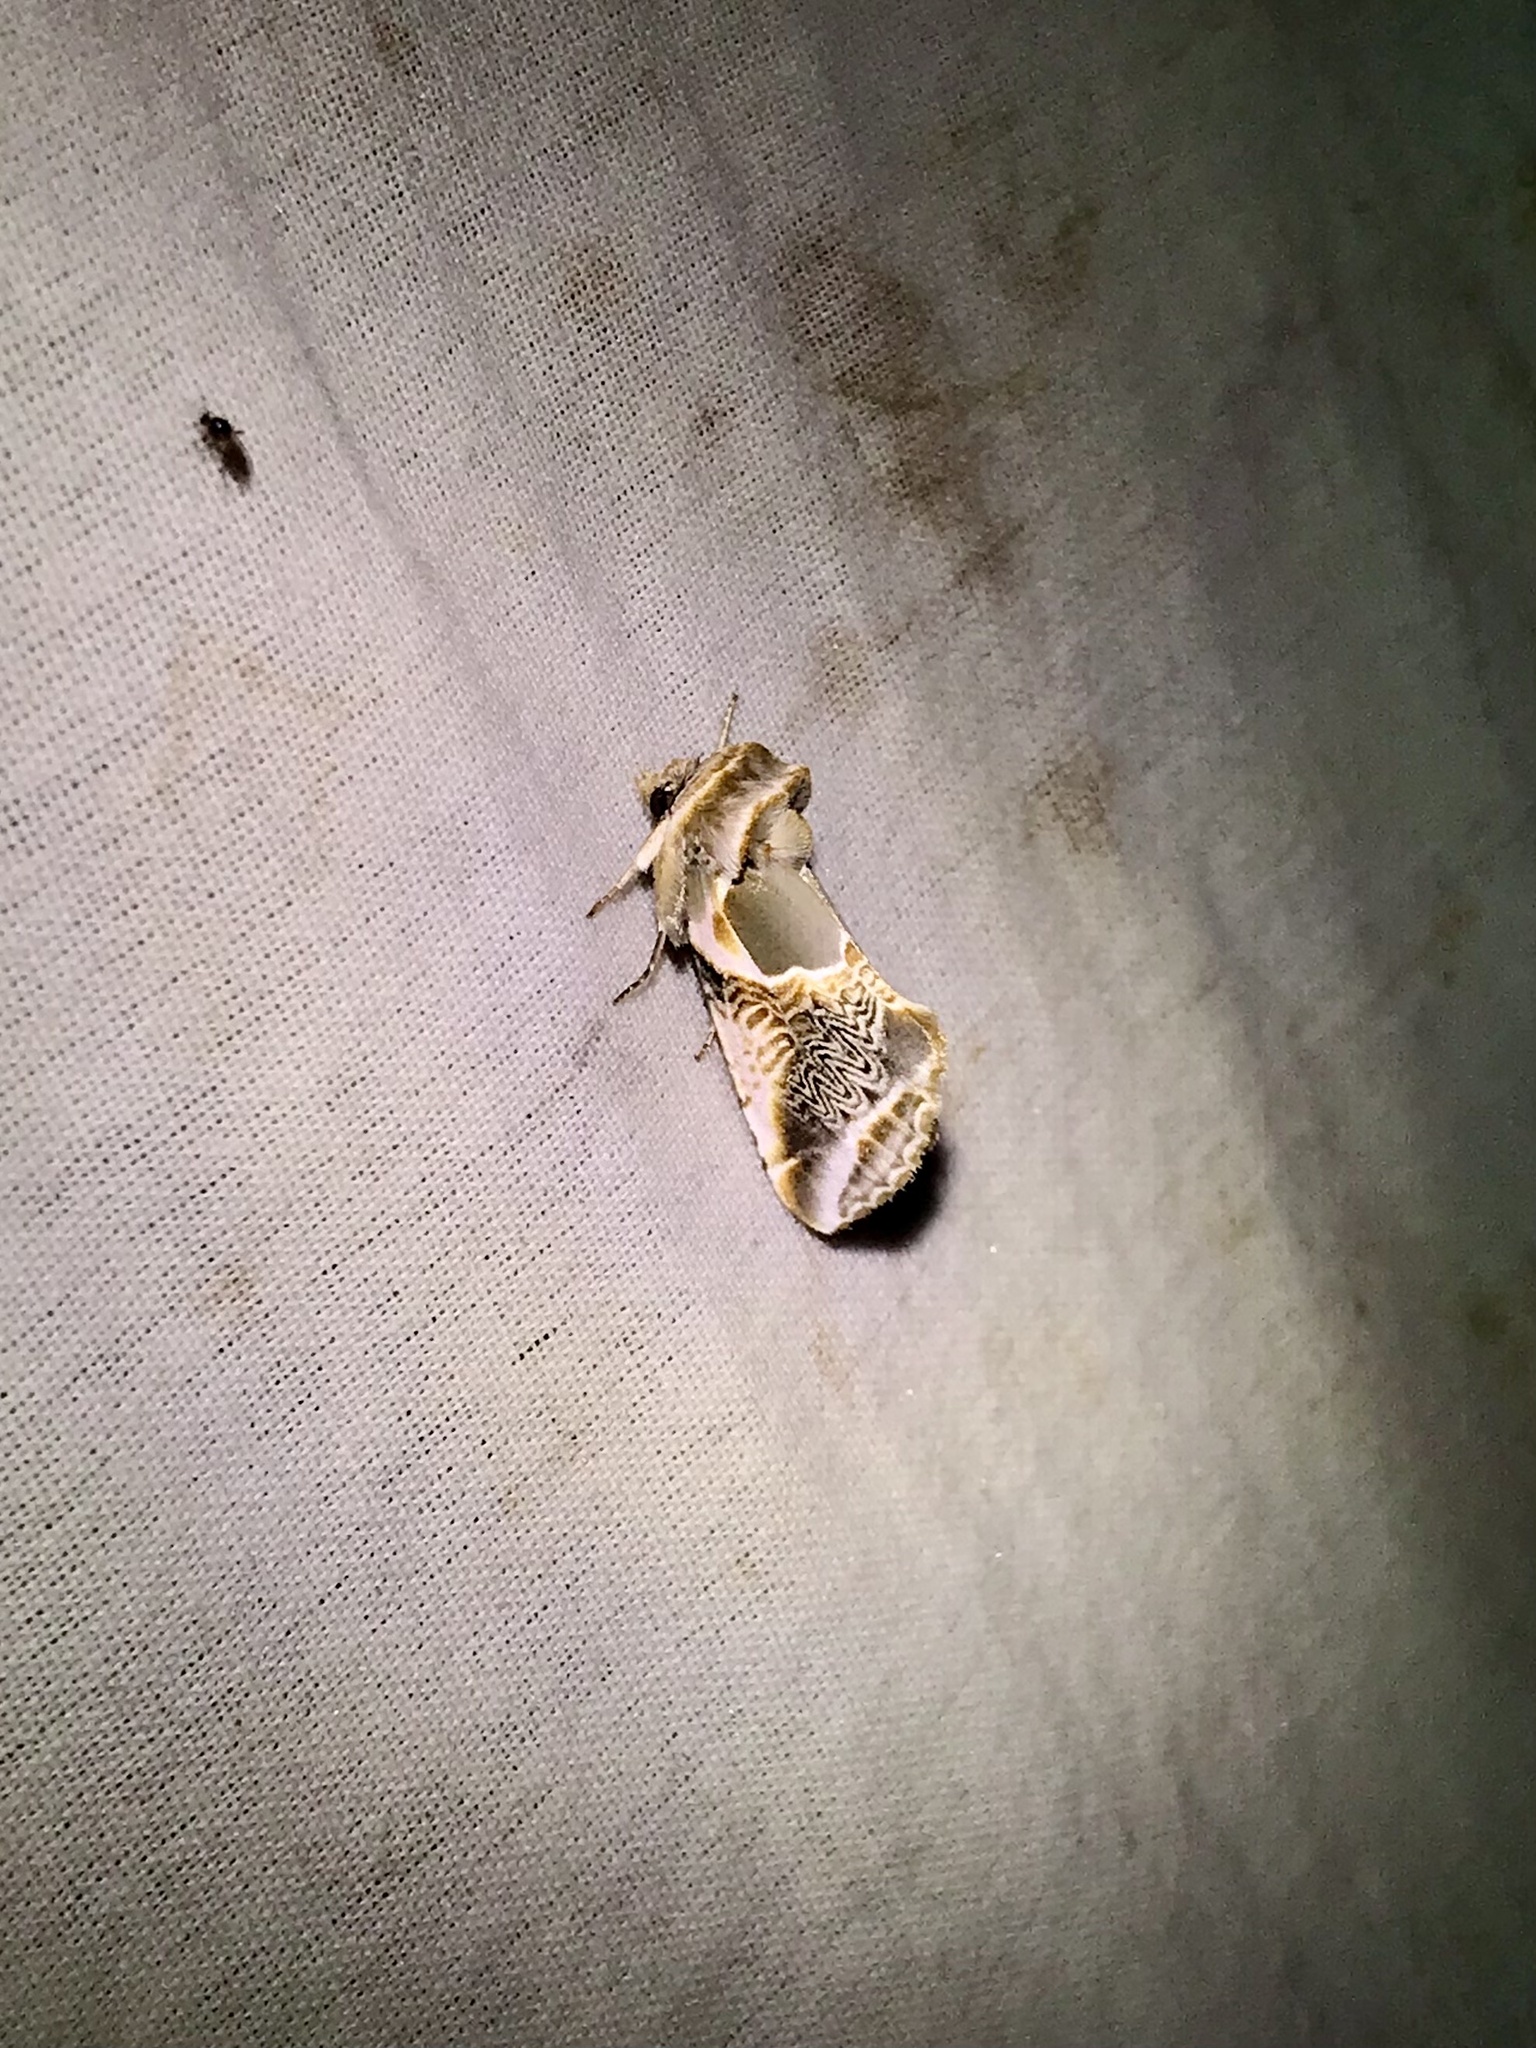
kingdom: Animalia
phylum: Arthropoda
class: Insecta
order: Lepidoptera
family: Drepanidae
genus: Habrosyne
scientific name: Habrosyne scripta
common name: Lettered habrosyne moth
